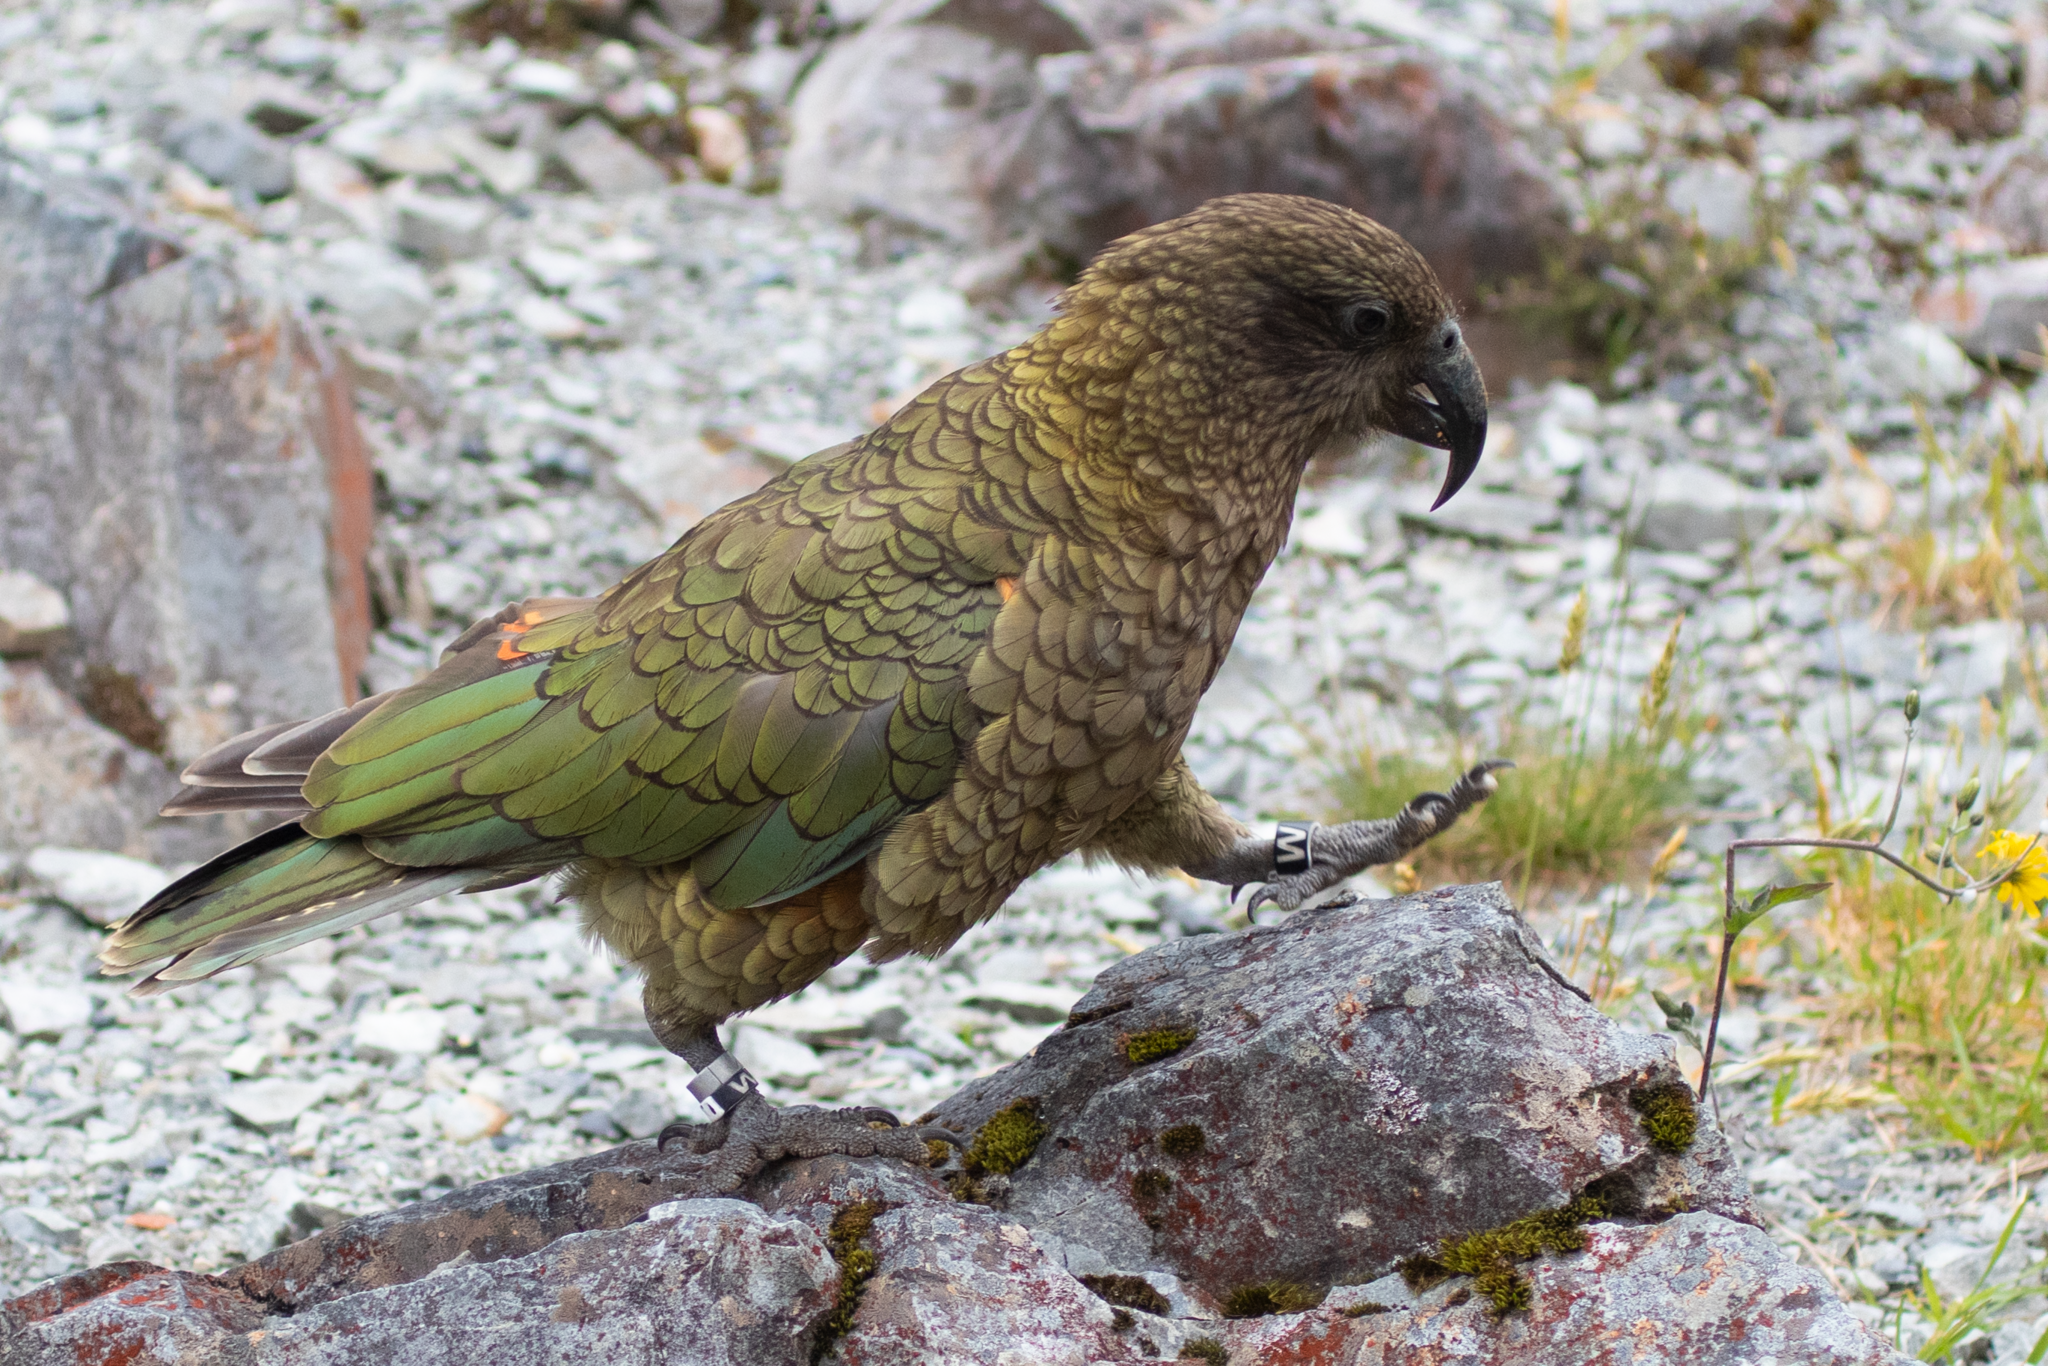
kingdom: Animalia
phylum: Chordata
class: Aves
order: Psittaciformes
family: Psittacidae
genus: Nestor
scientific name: Nestor notabilis
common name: Kea
